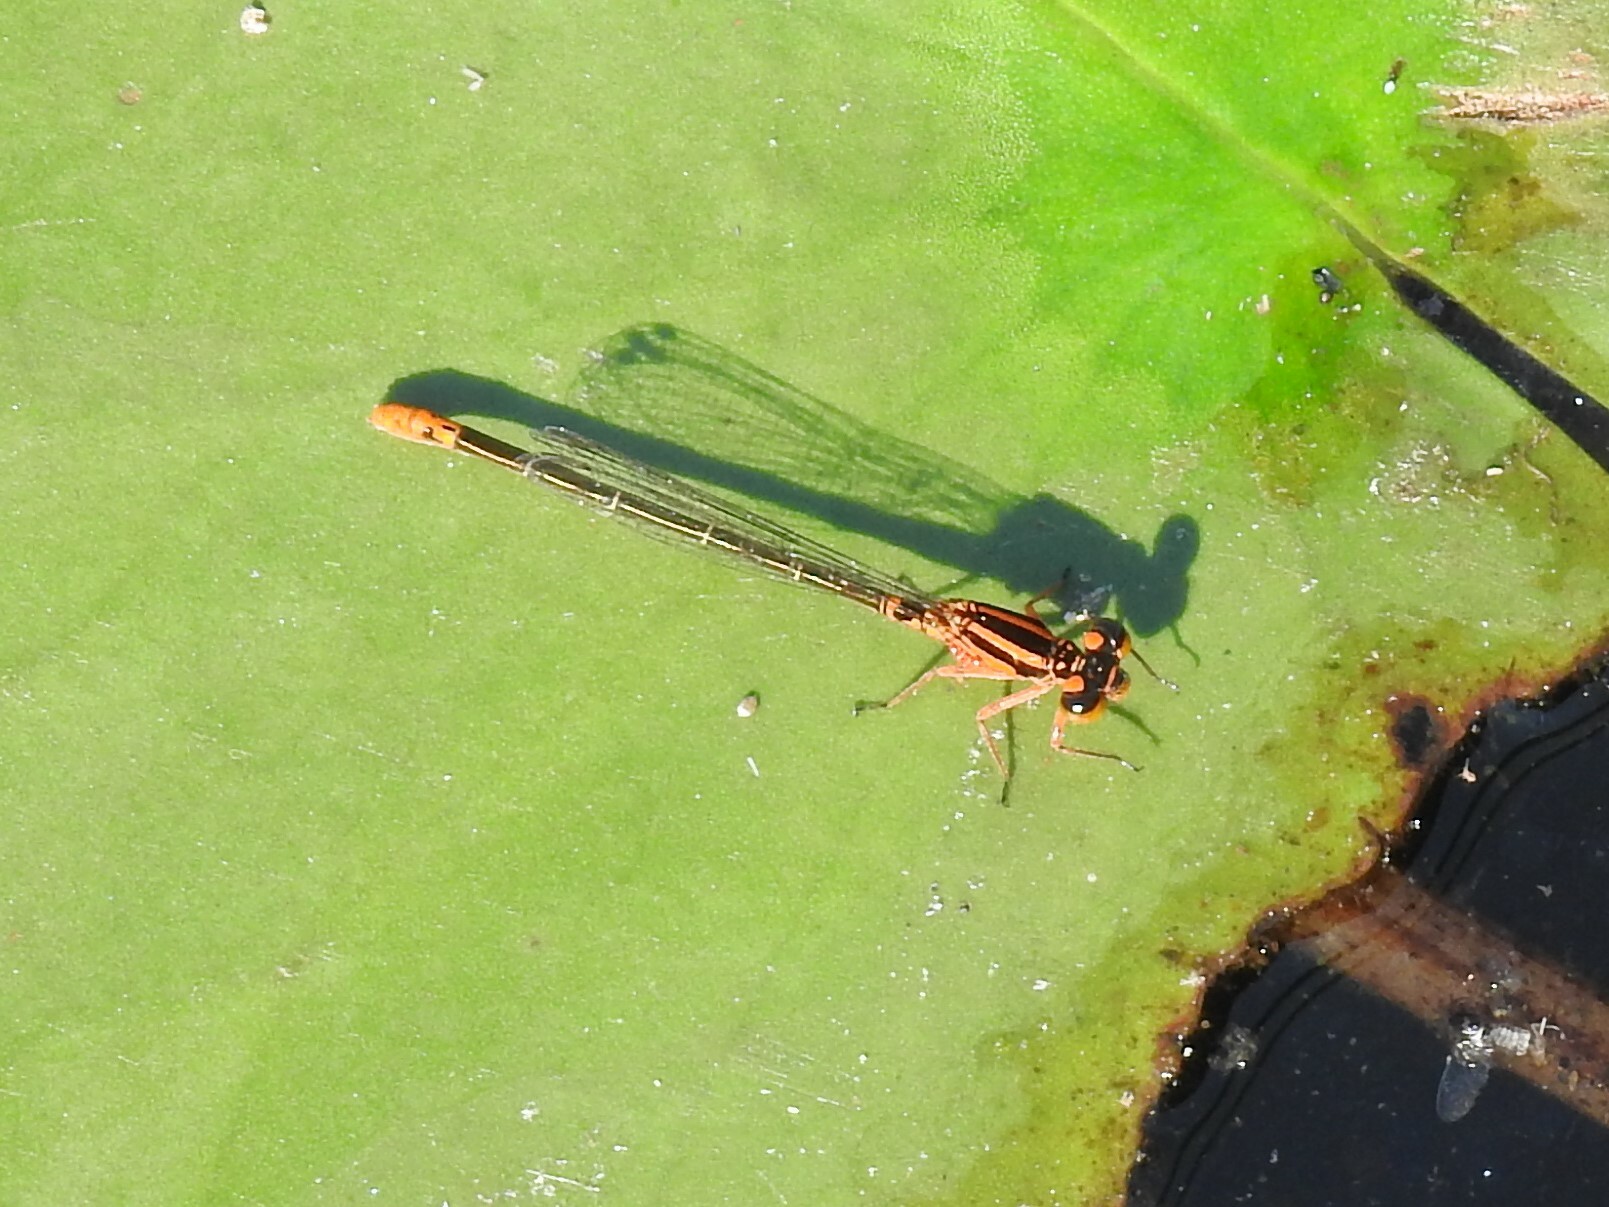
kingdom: Animalia
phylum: Arthropoda
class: Insecta
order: Odonata
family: Coenagrionidae
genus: Ischnura
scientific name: Ischnura kellicotti
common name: Lilypad forktail
